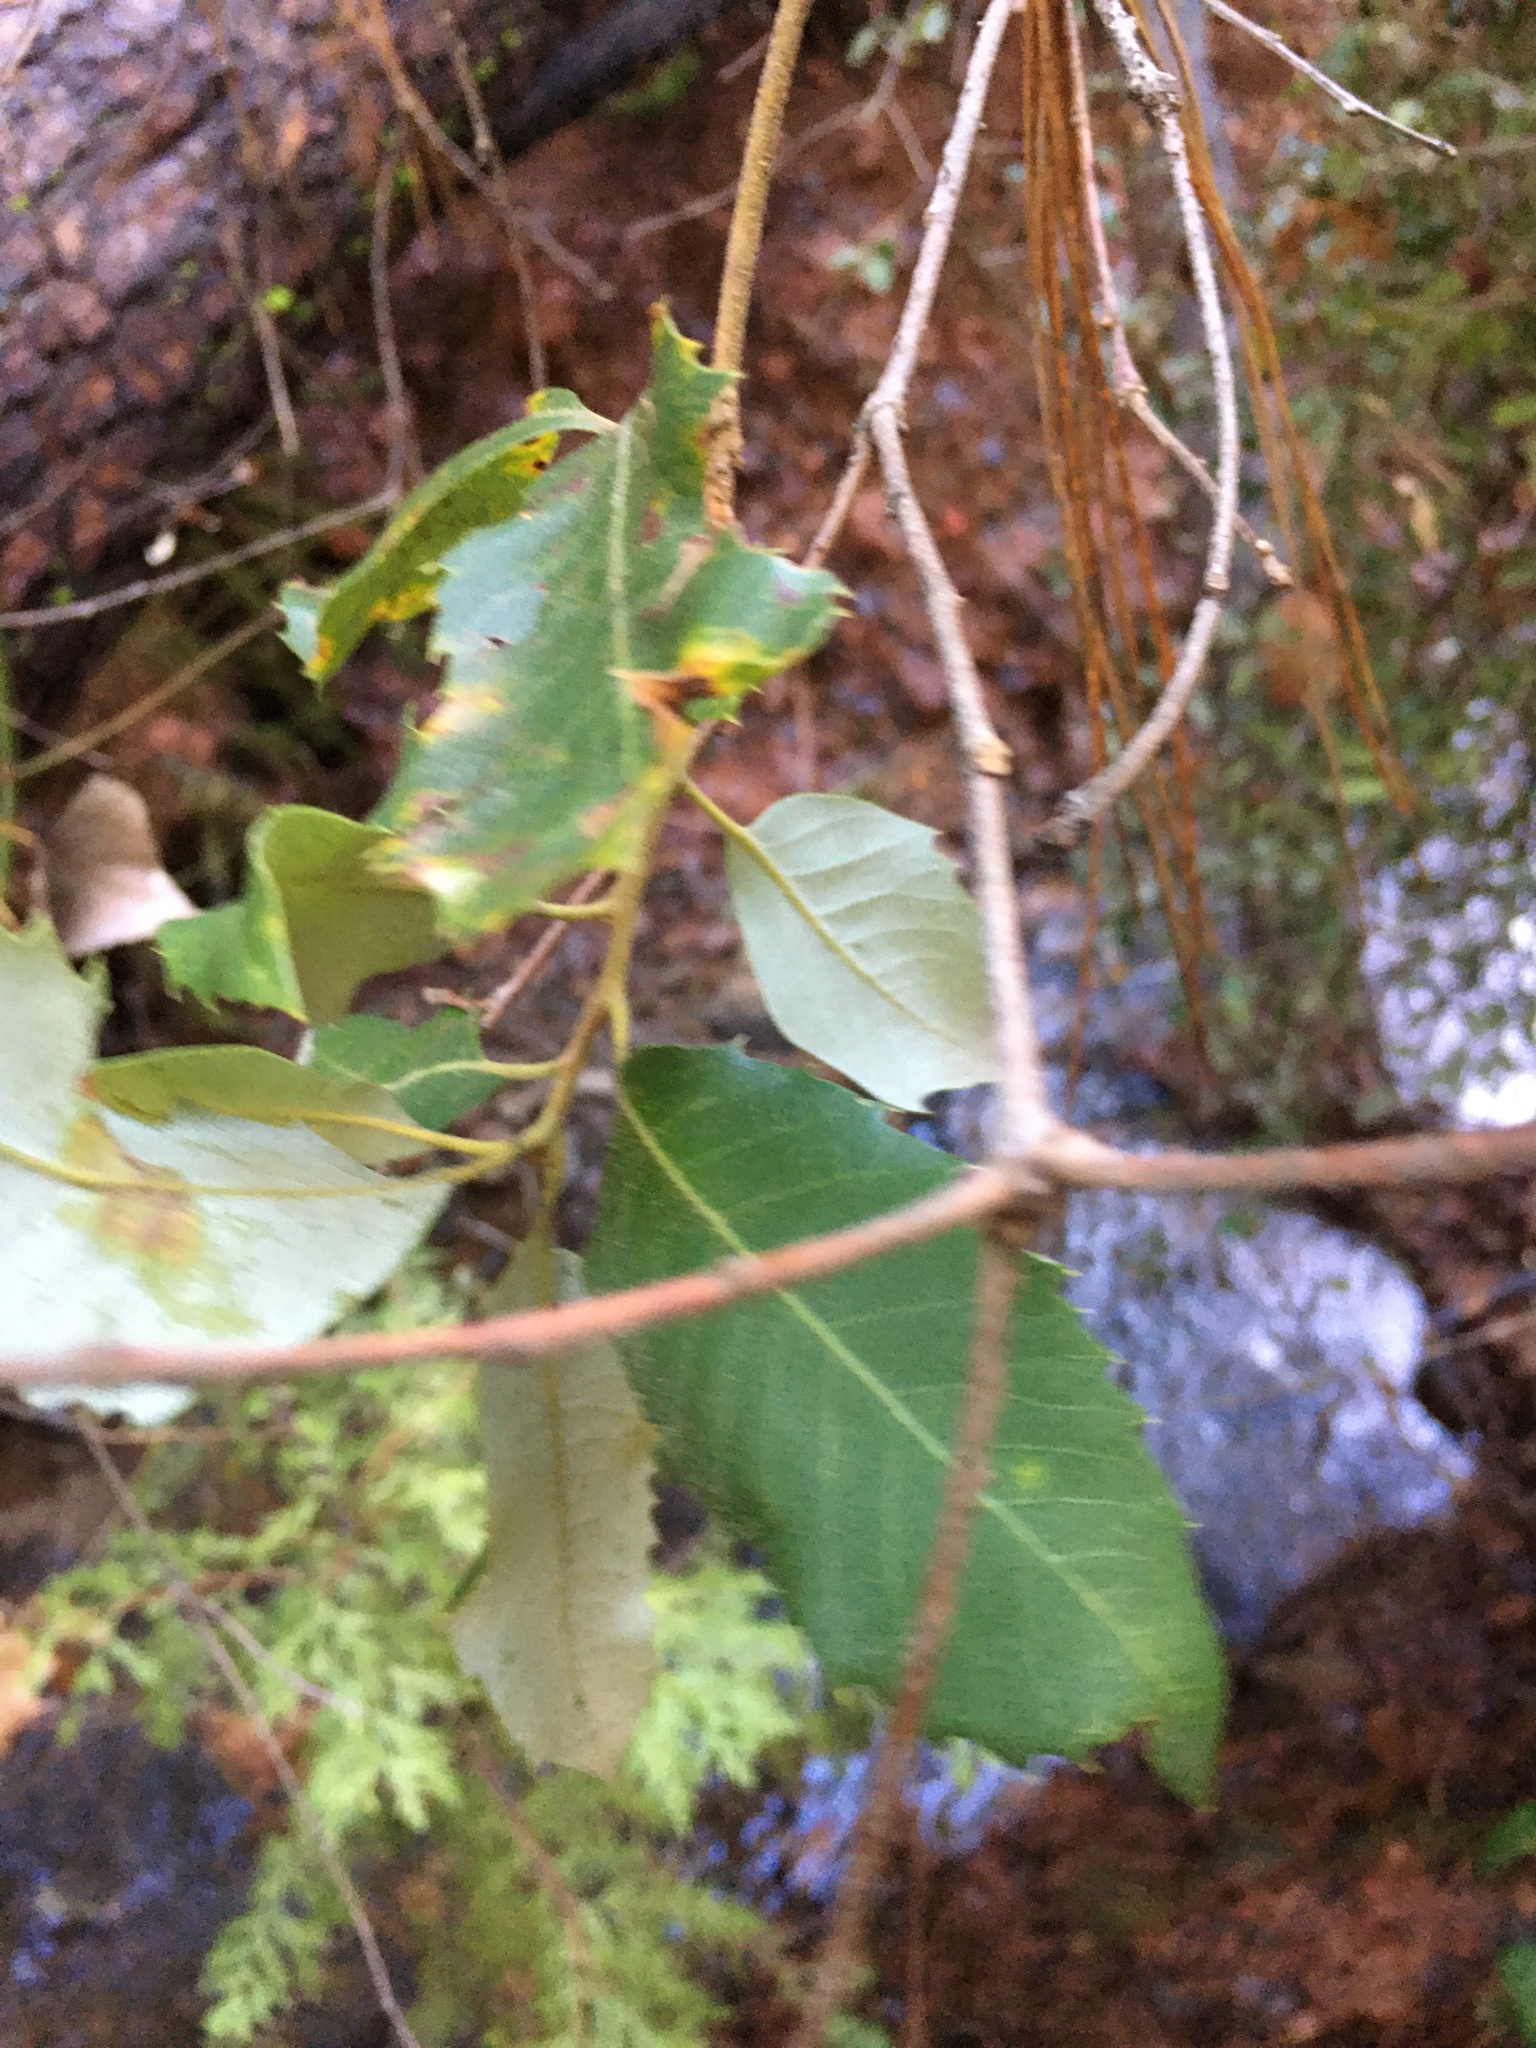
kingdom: Plantae
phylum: Tracheophyta
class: Magnoliopsida
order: Fagales
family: Fagaceae
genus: Quercus
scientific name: Quercus chrysolepis
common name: Canyon live oak
